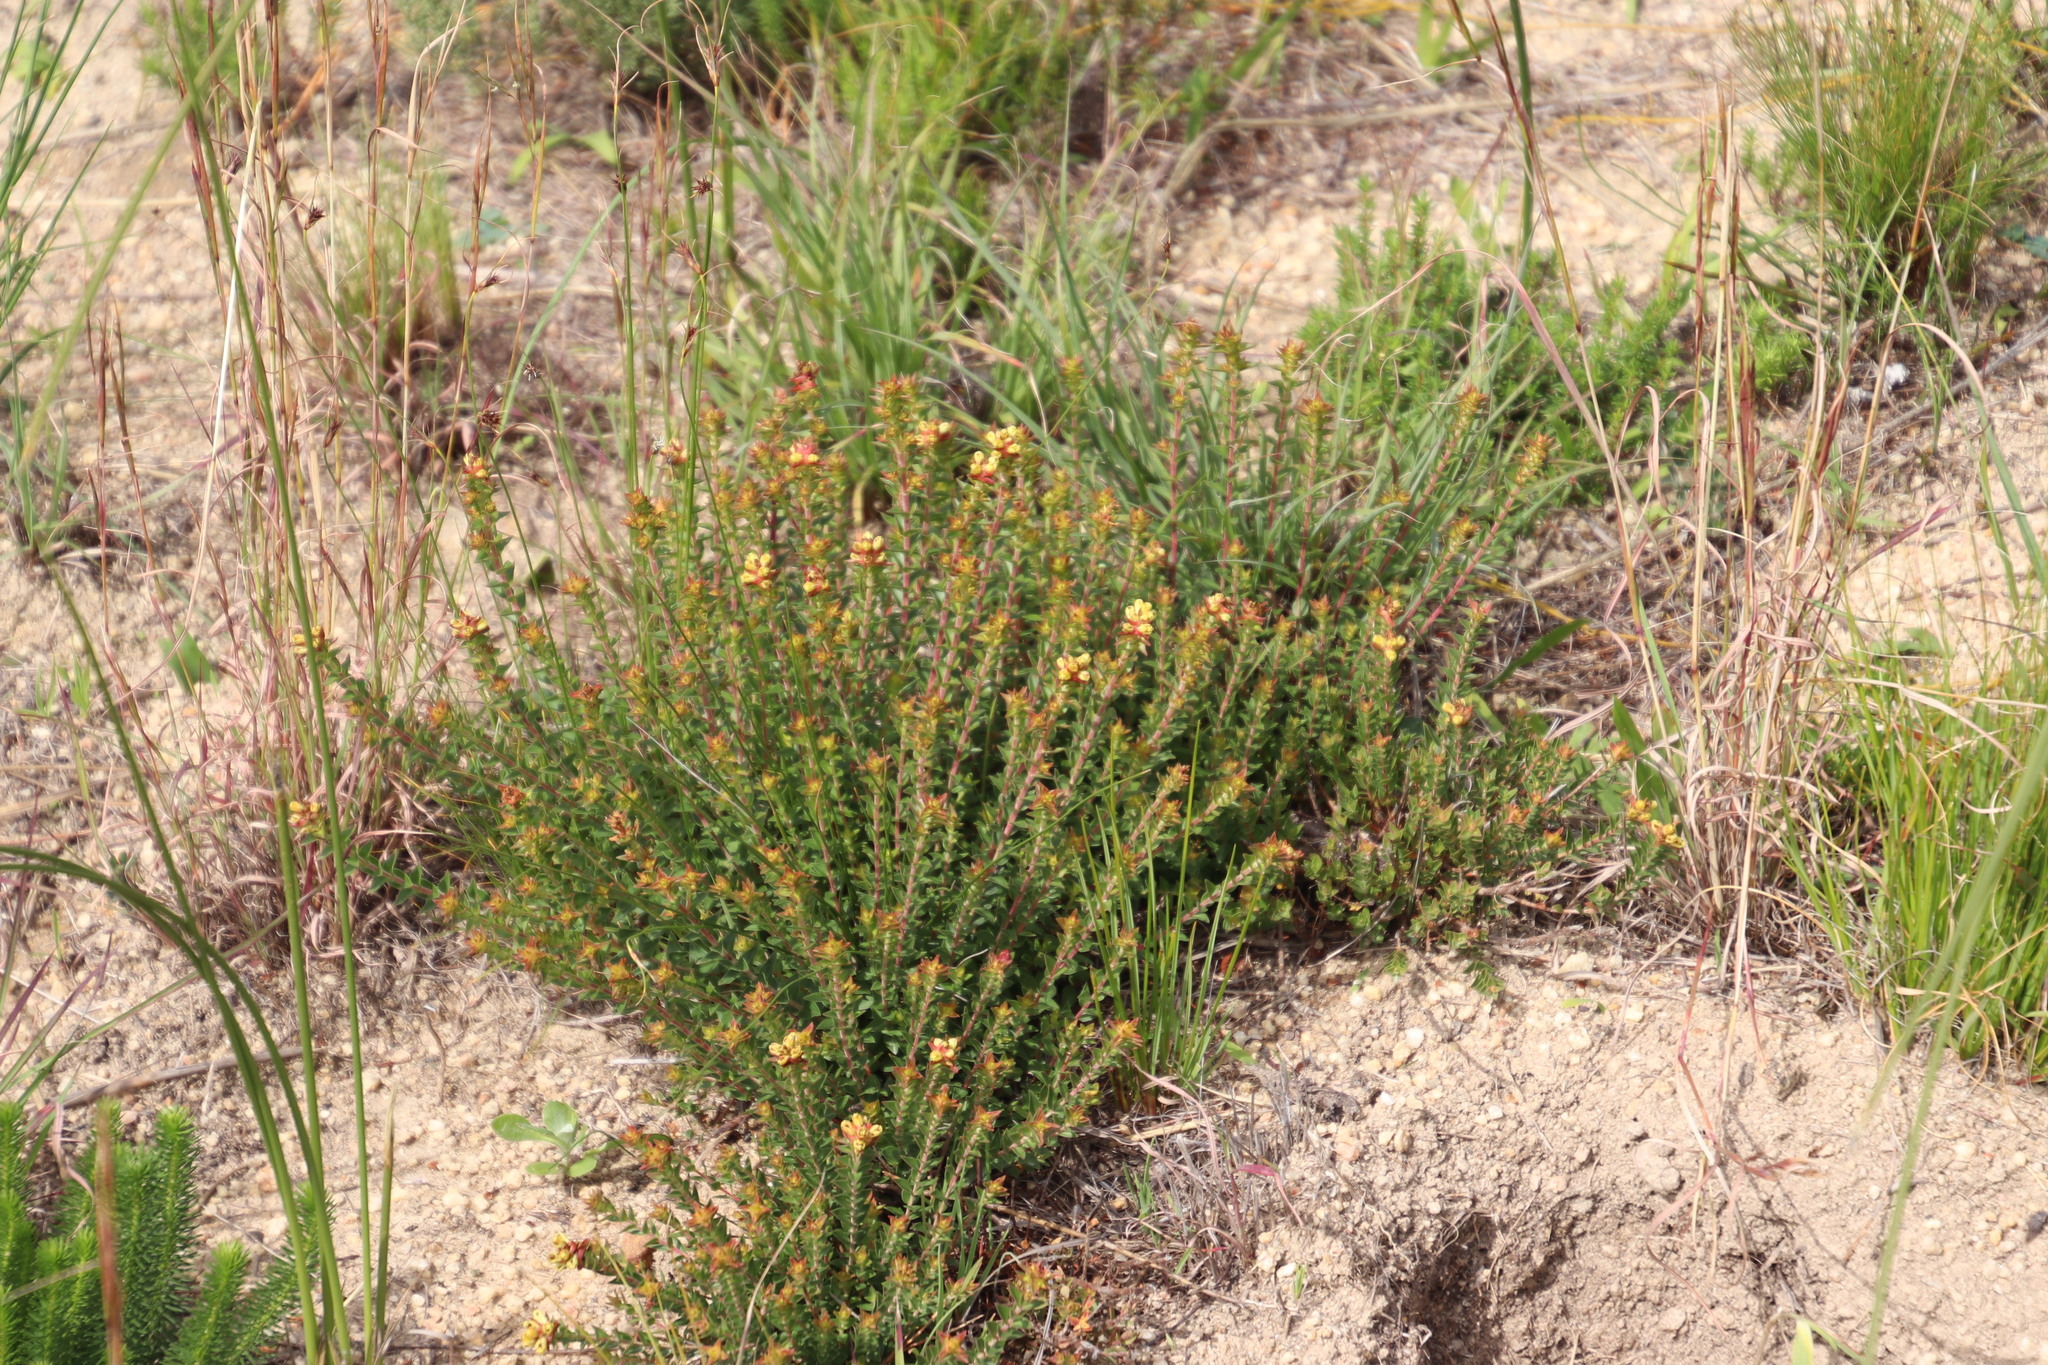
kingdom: Plantae
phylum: Tracheophyta
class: Magnoliopsida
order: Myrtales
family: Penaeaceae
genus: Penaea
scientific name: Penaea mucronata
